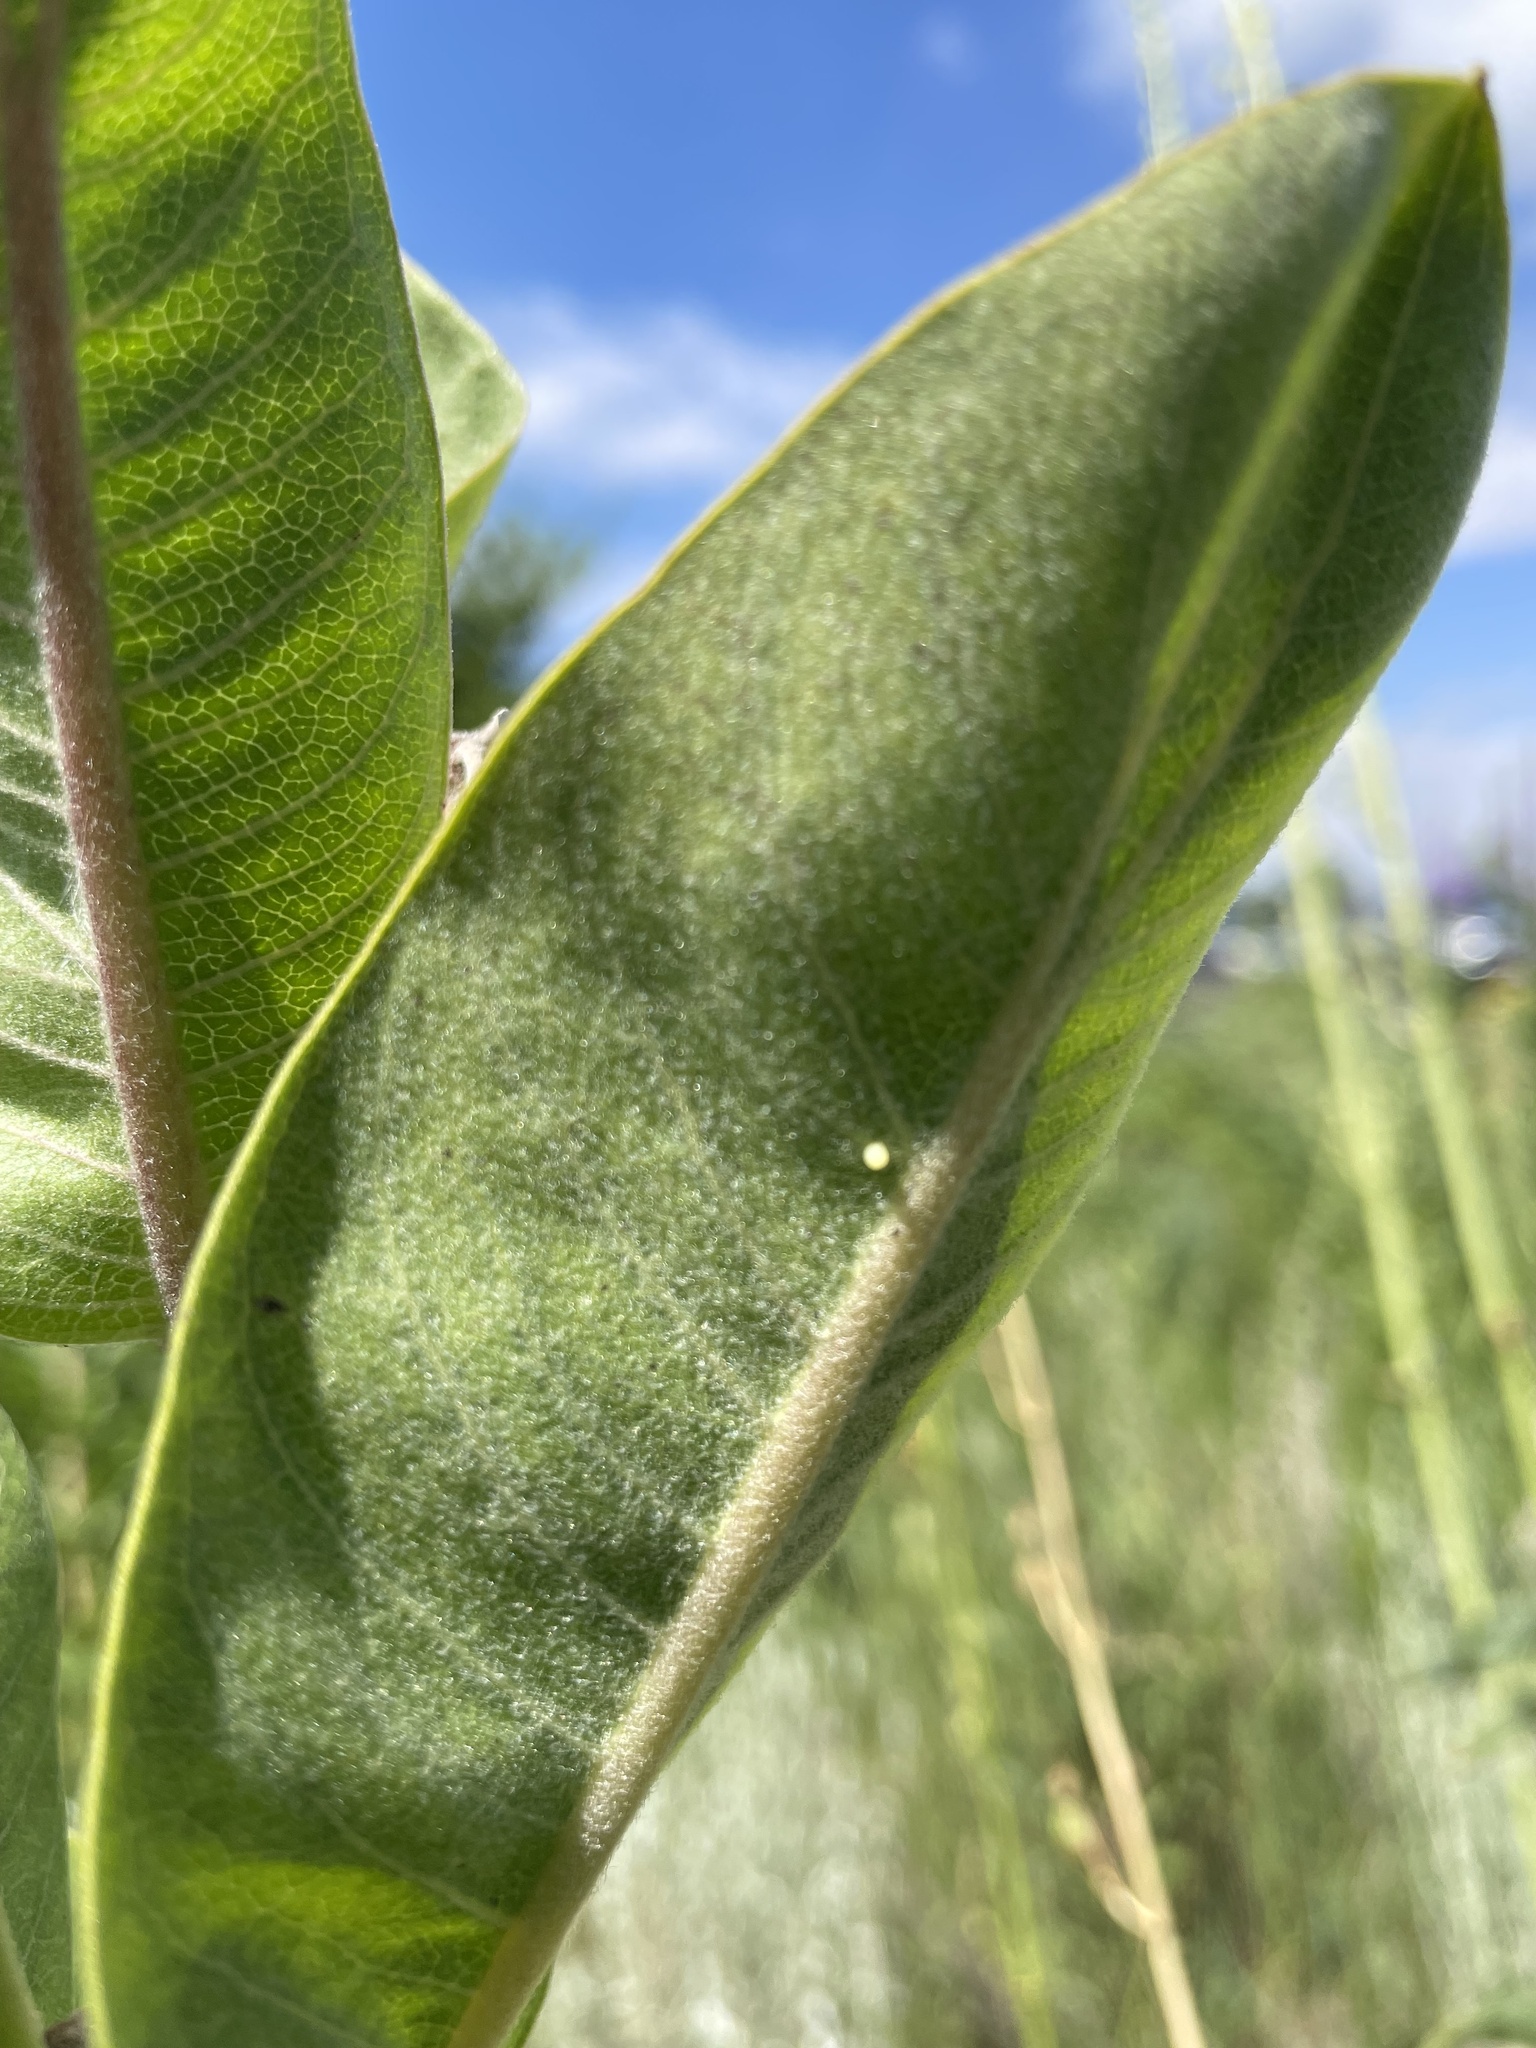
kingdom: Animalia
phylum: Arthropoda
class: Insecta
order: Lepidoptera
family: Nymphalidae
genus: Danaus
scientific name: Danaus plexippus
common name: Monarch
